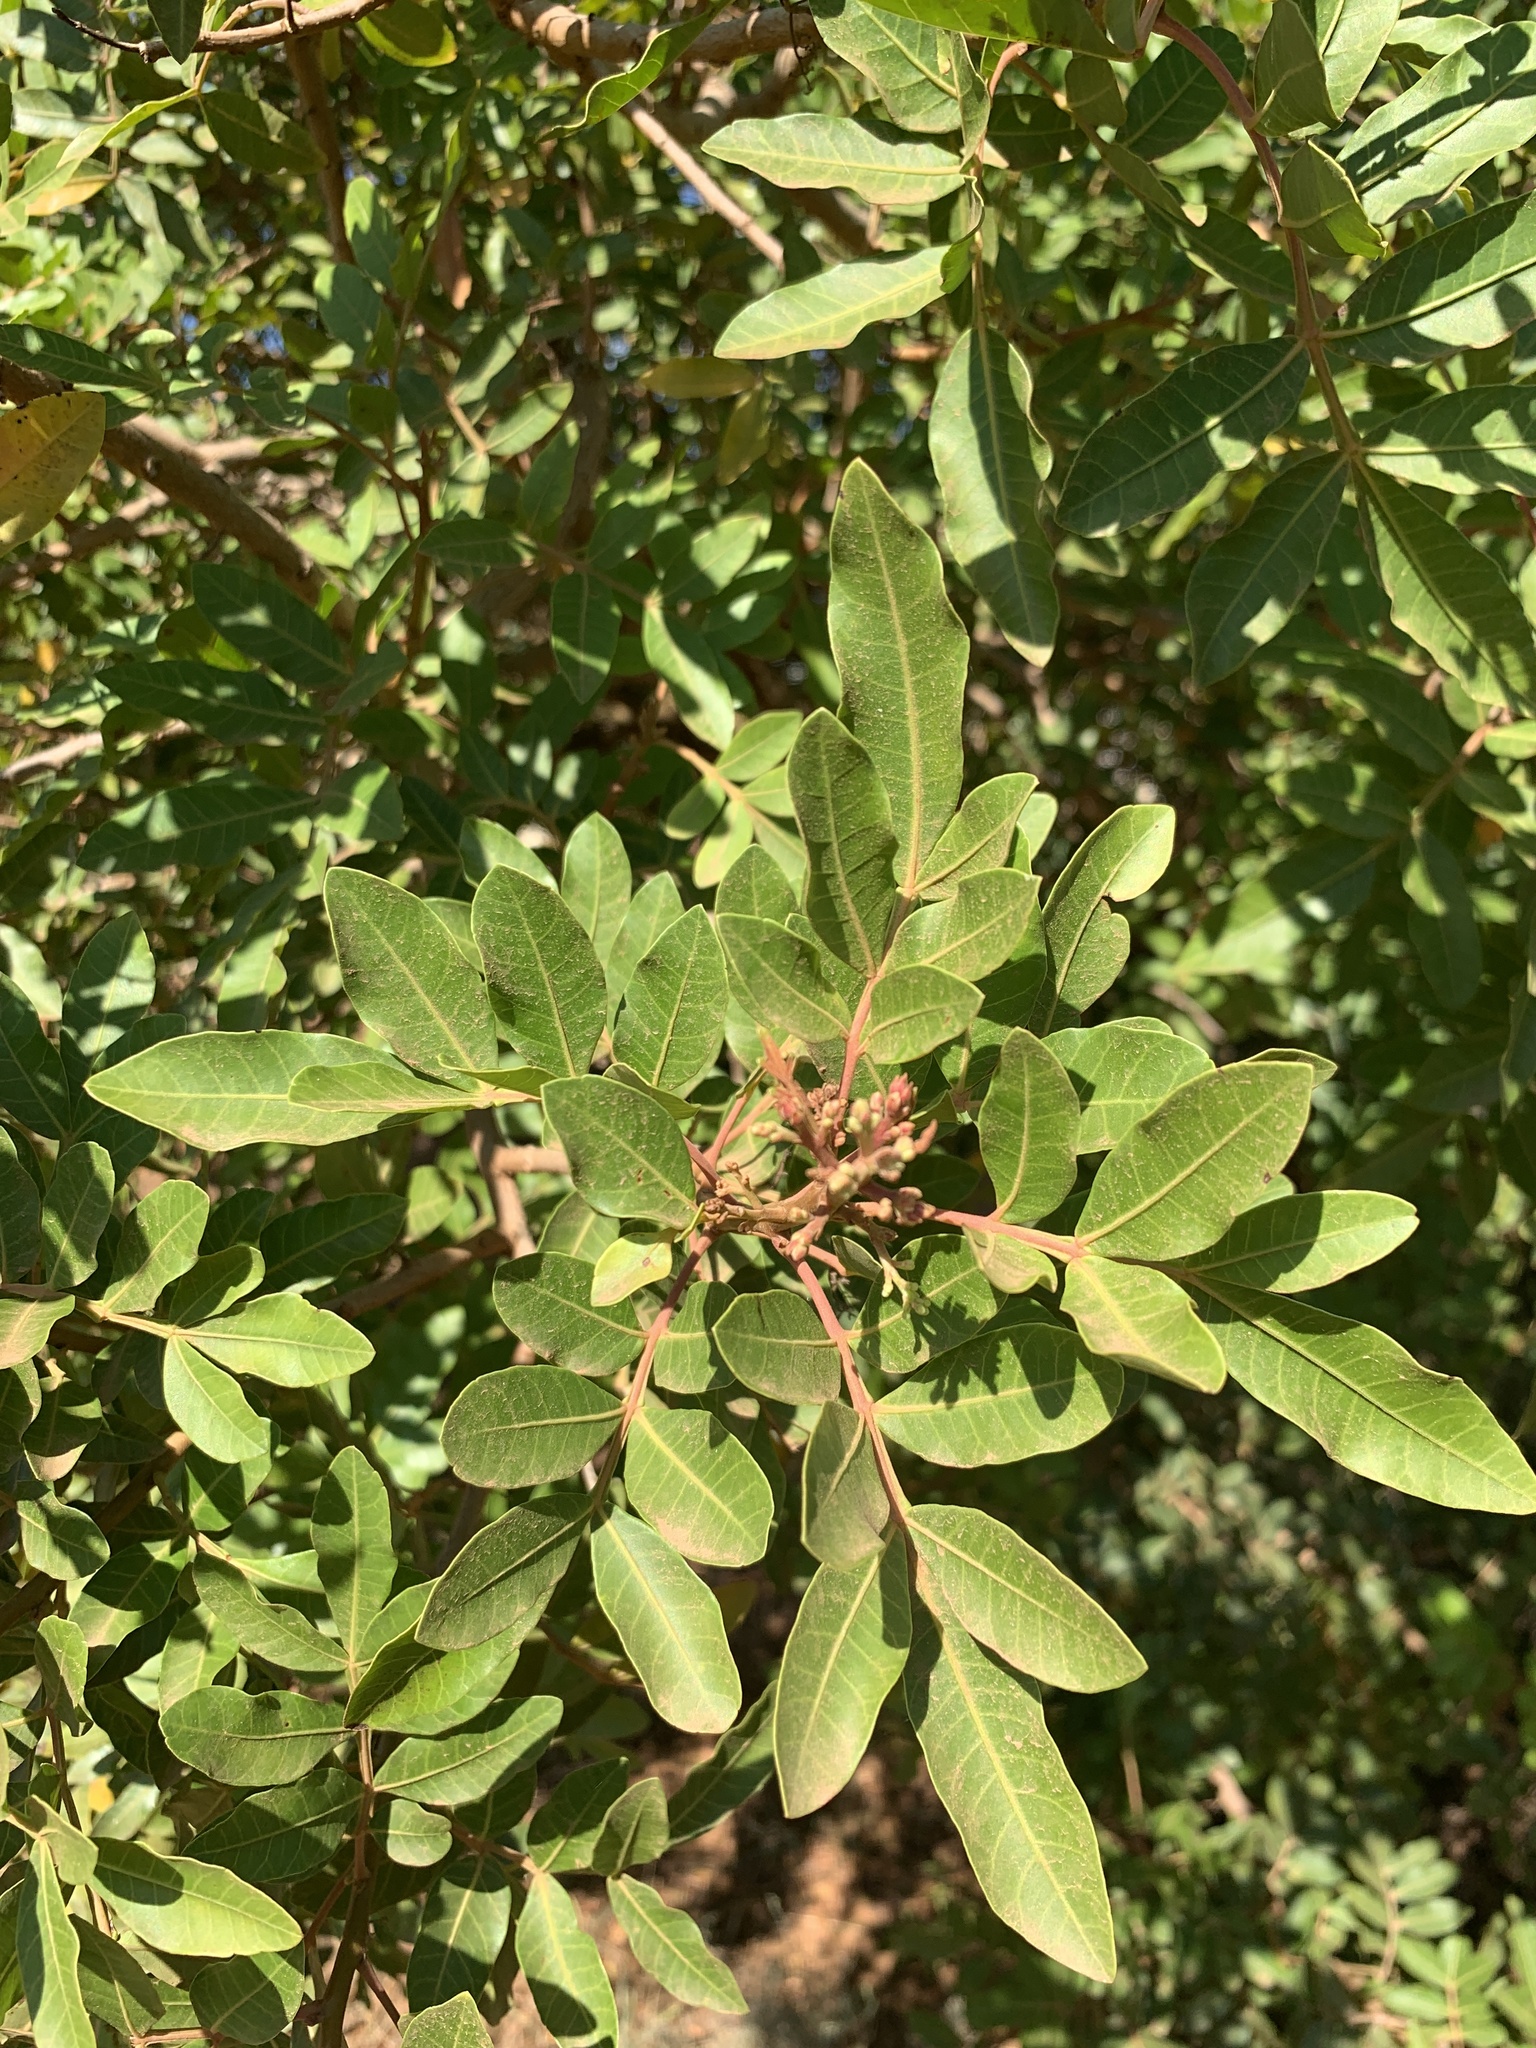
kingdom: Plantae
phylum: Tracheophyta
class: Magnoliopsida
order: Sapindales
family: Anacardiaceae
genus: Schinus
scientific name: Schinus terebinthifolia
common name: Brazilian peppertree
